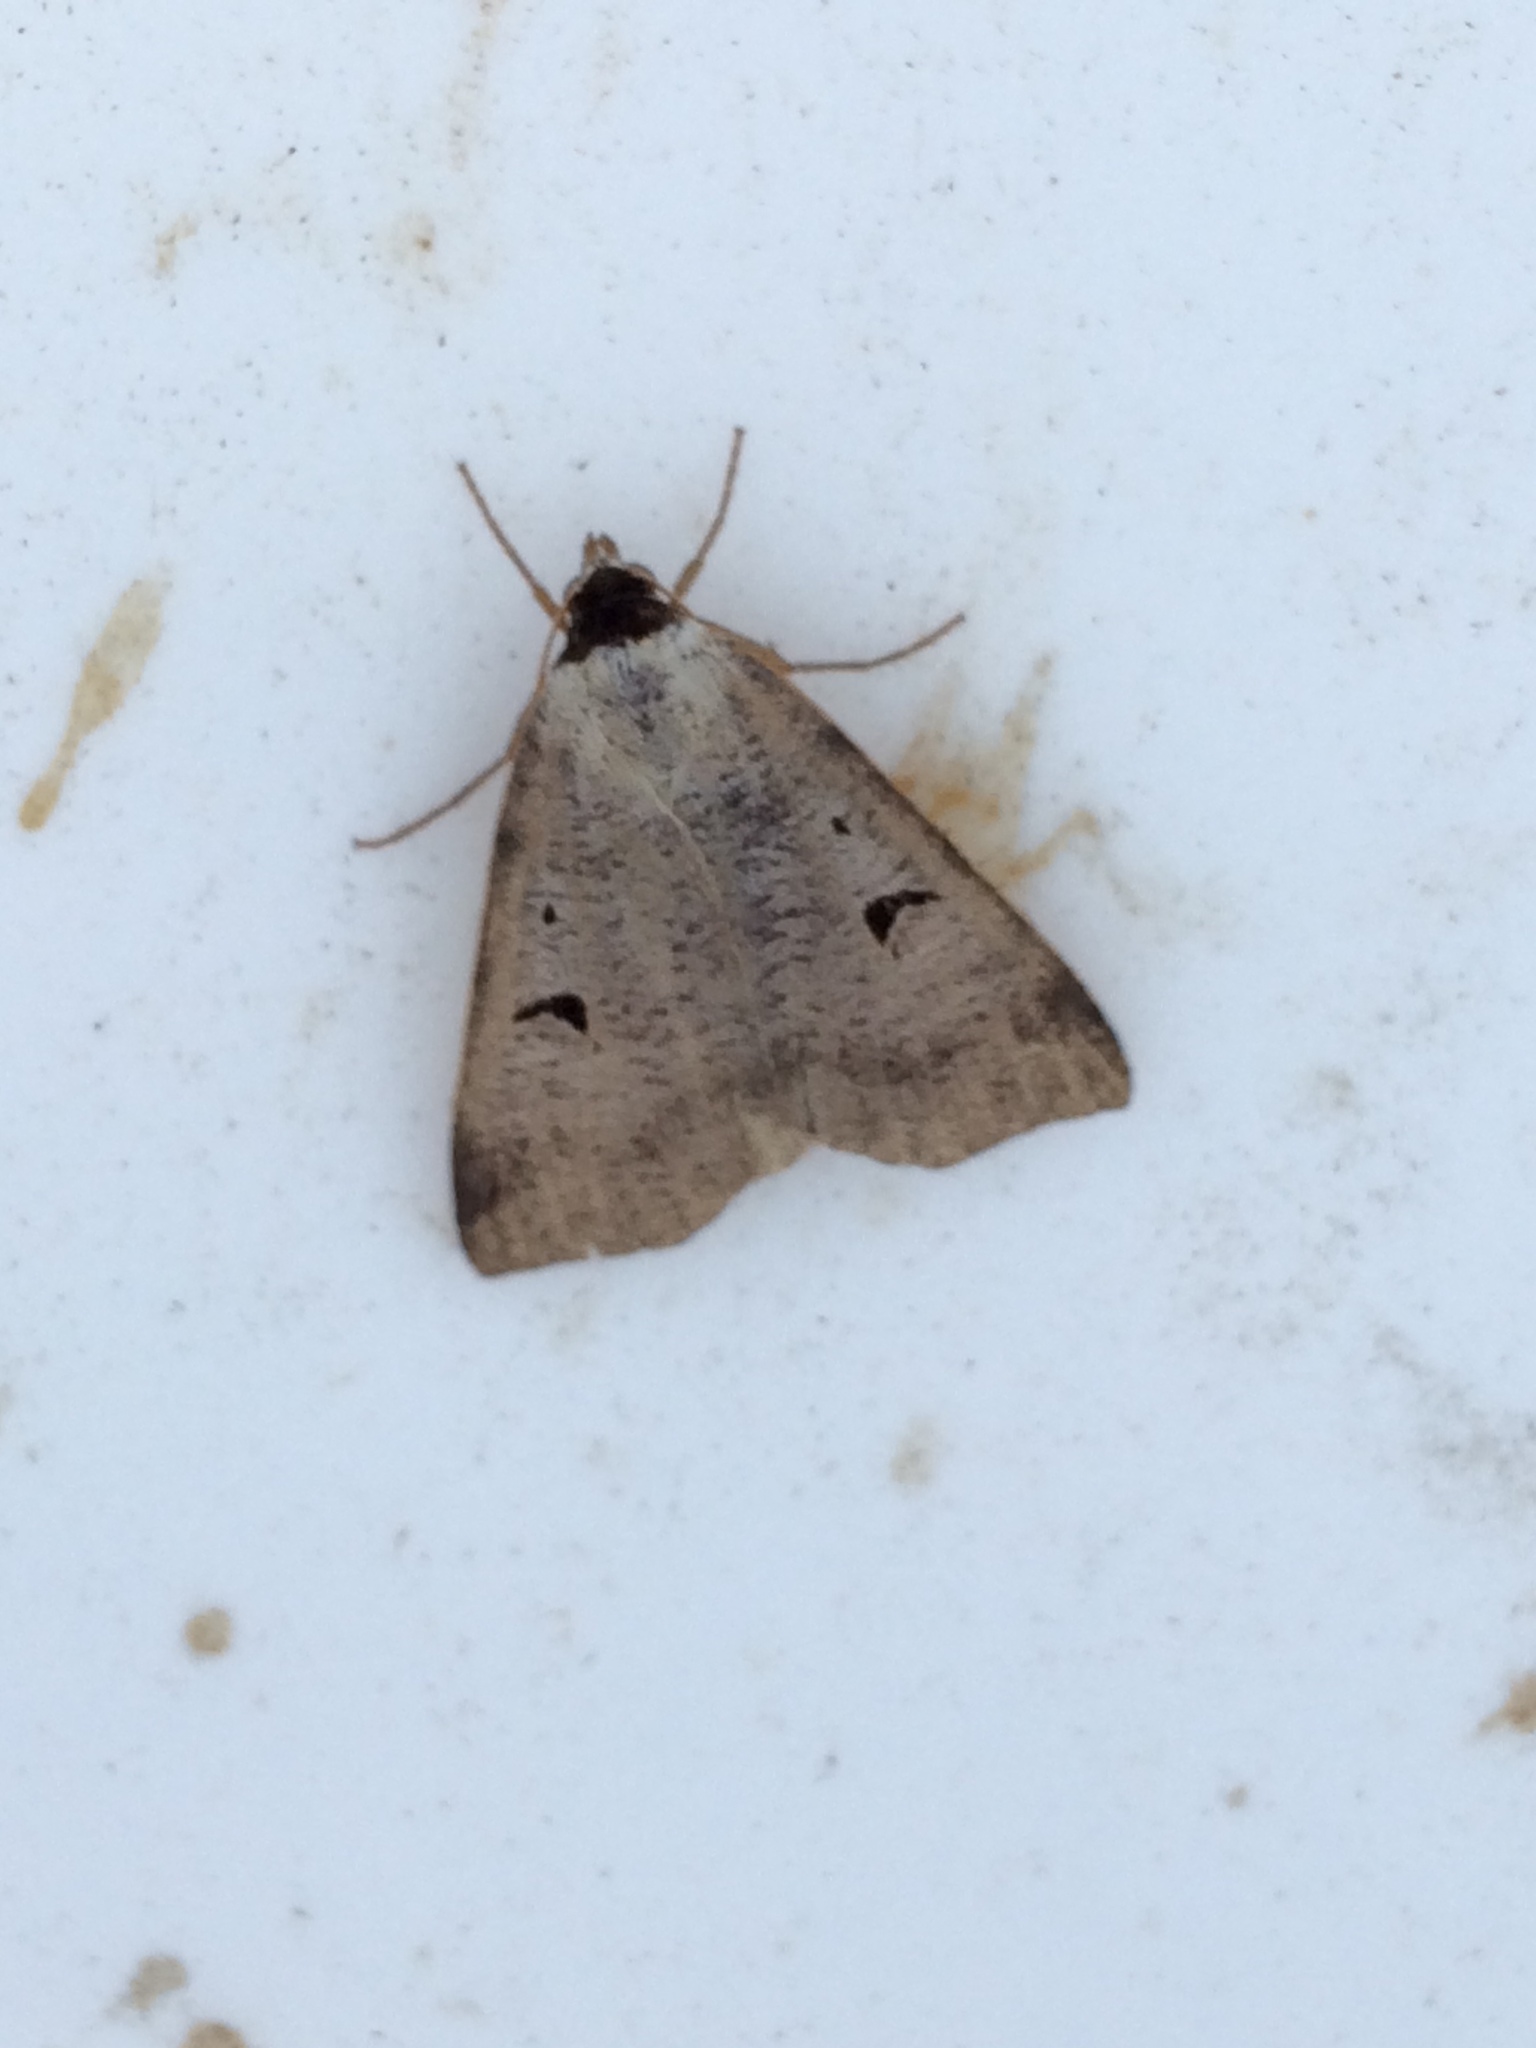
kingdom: Animalia
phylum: Arthropoda
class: Insecta
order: Lepidoptera
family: Erebidae
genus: Lygephila
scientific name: Lygephila pastinum
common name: Blackneck
